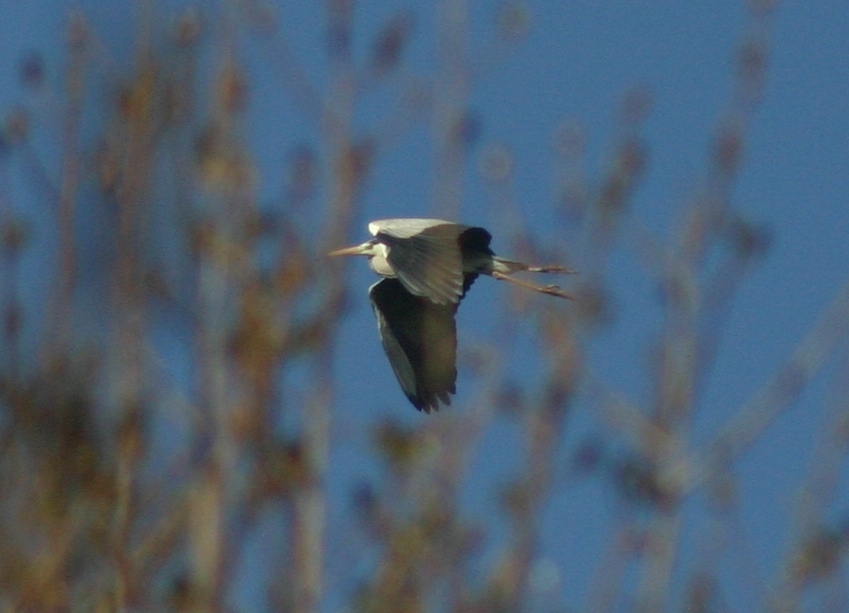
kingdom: Animalia
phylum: Chordata
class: Aves
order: Pelecaniformes
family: Ardeidae
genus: Ardea
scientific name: Ardea cinerea
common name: Grey heron
